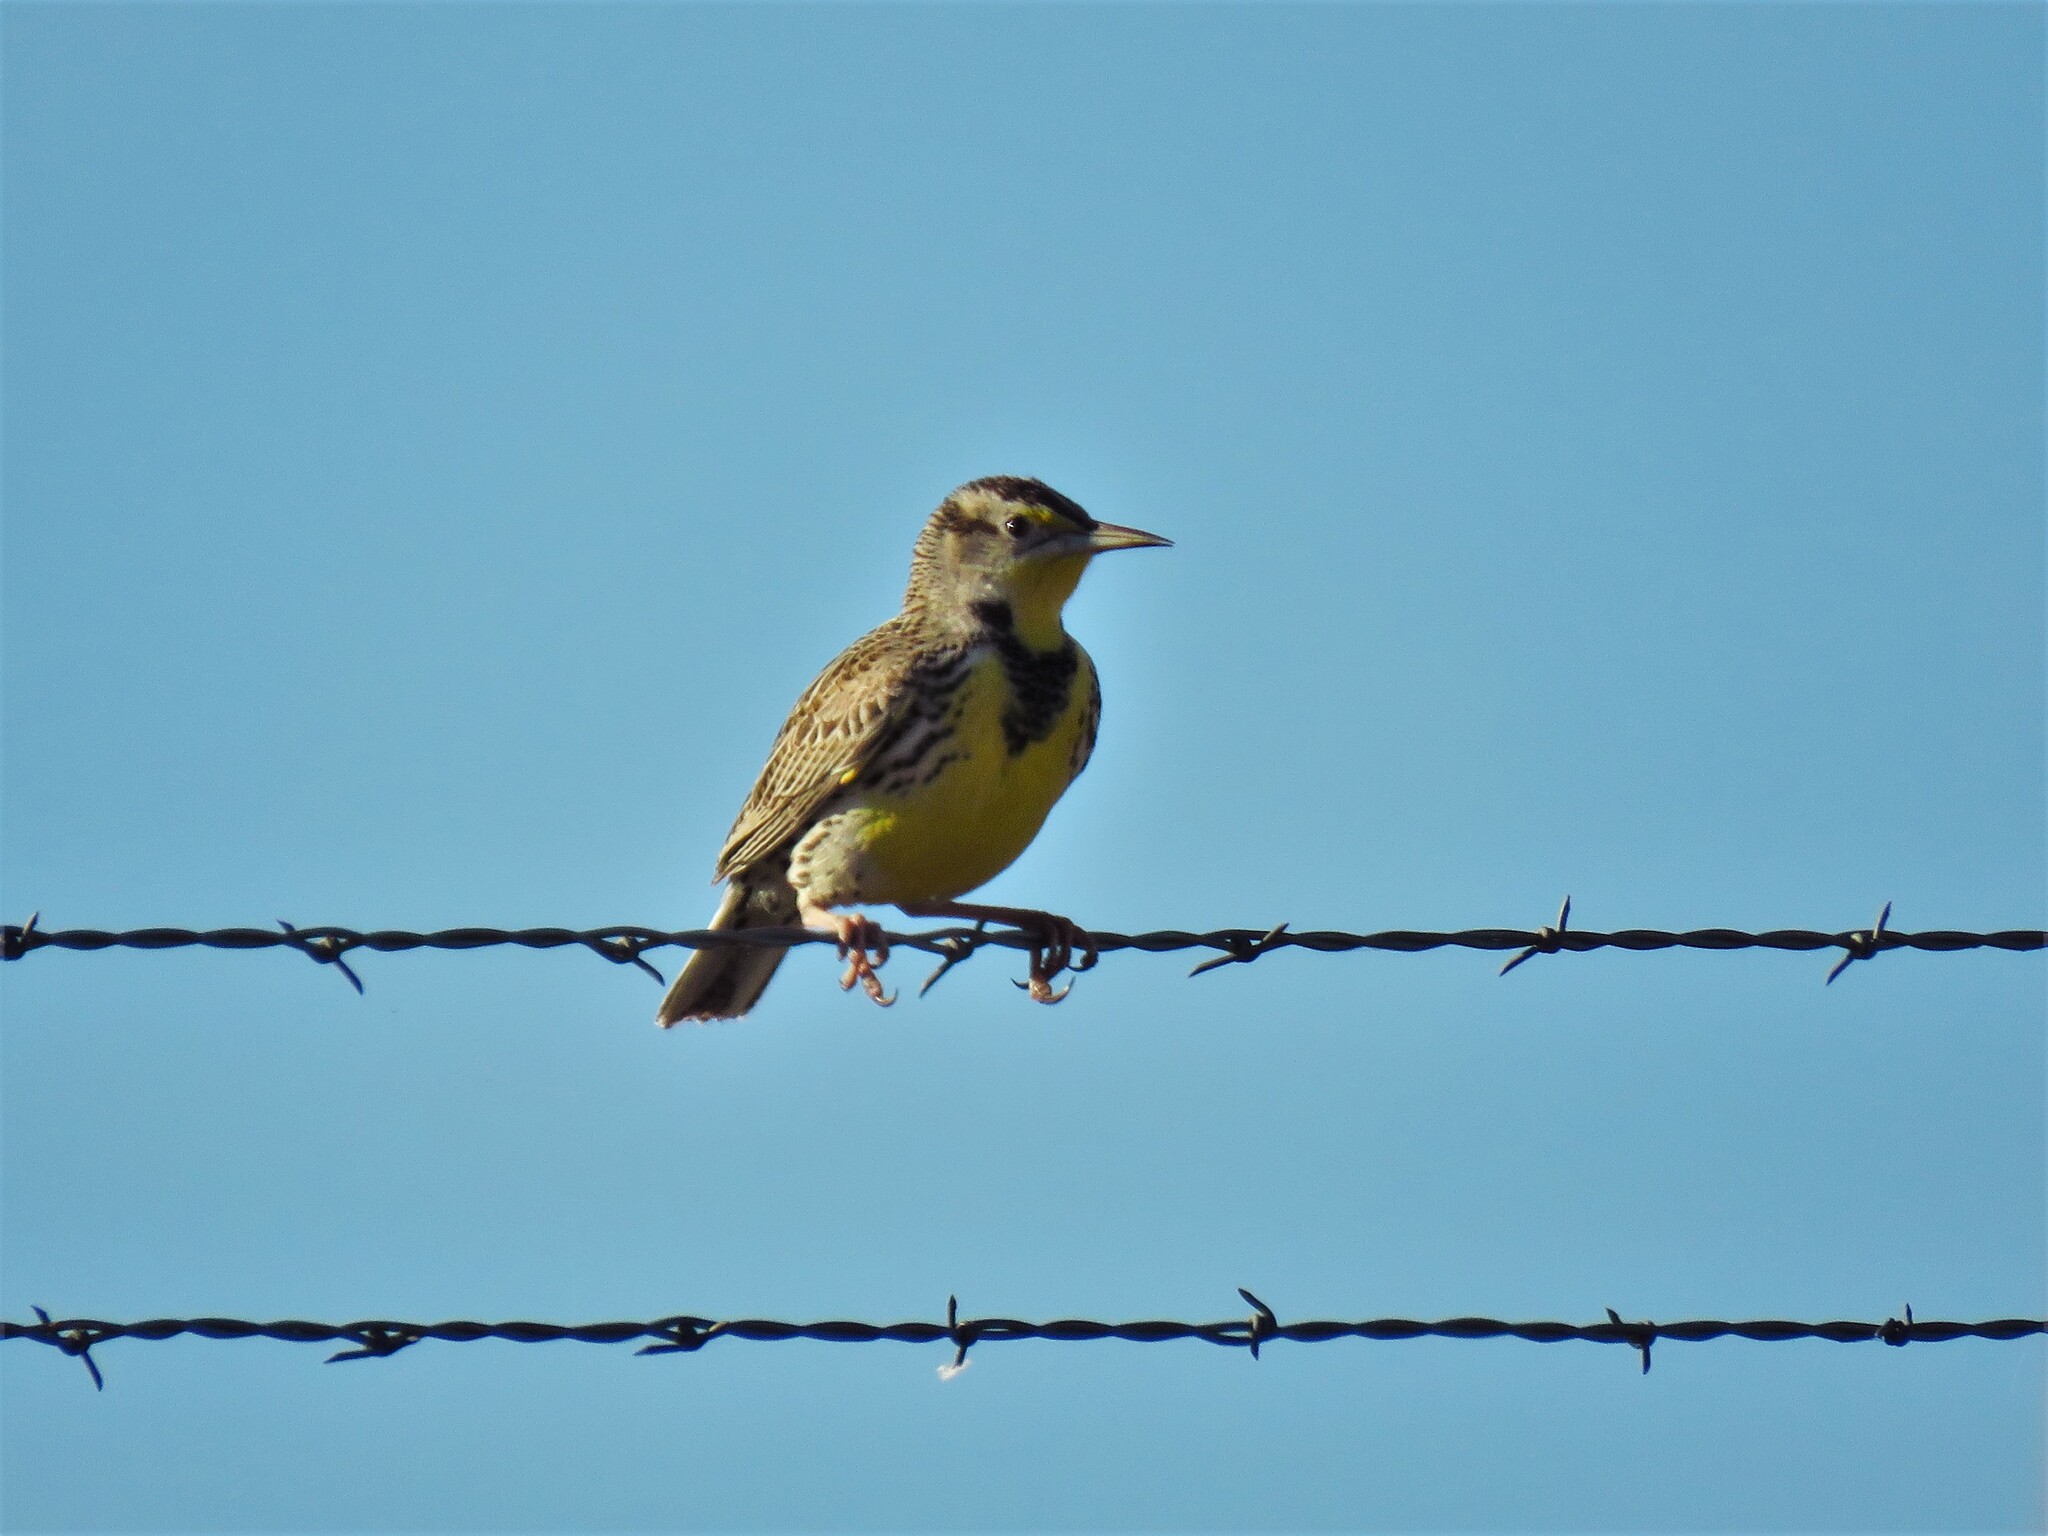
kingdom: Animalia
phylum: Chordata
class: Aves
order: Passeriformes
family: Icteridae
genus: Sturnella
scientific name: Sturnella neglecta
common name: Western meadowlark
